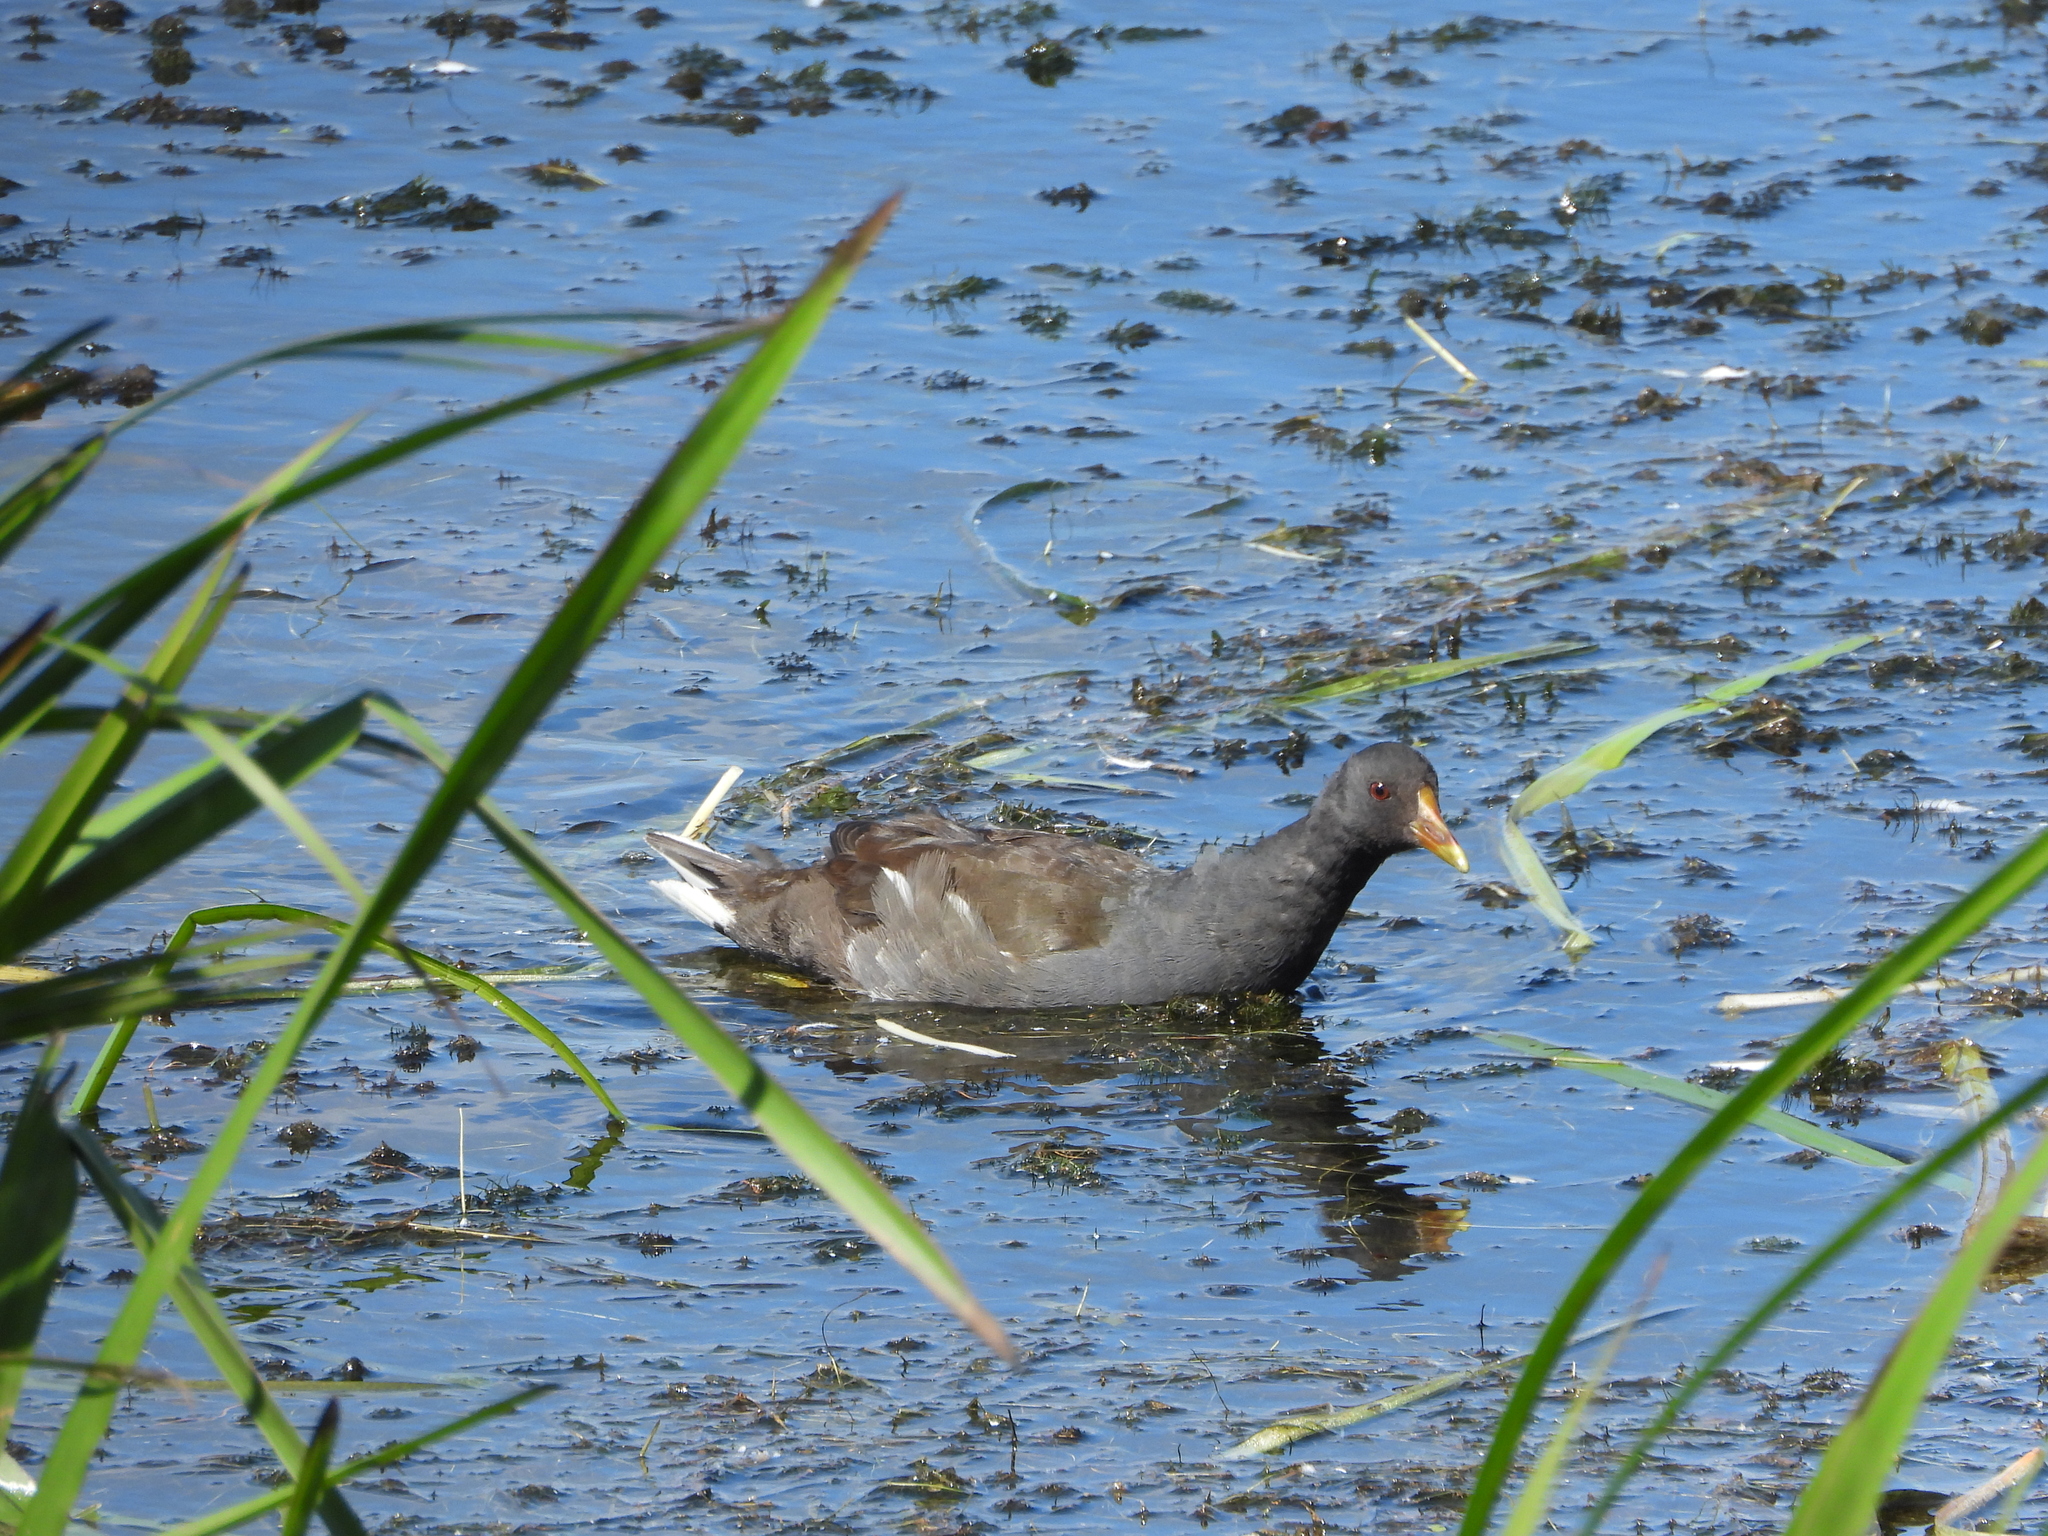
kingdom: Animalia
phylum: Chordata
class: Aves
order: Gruiformes
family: Rallidae
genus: Gallinula
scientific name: Gallinula chloropus
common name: Common moorhen
